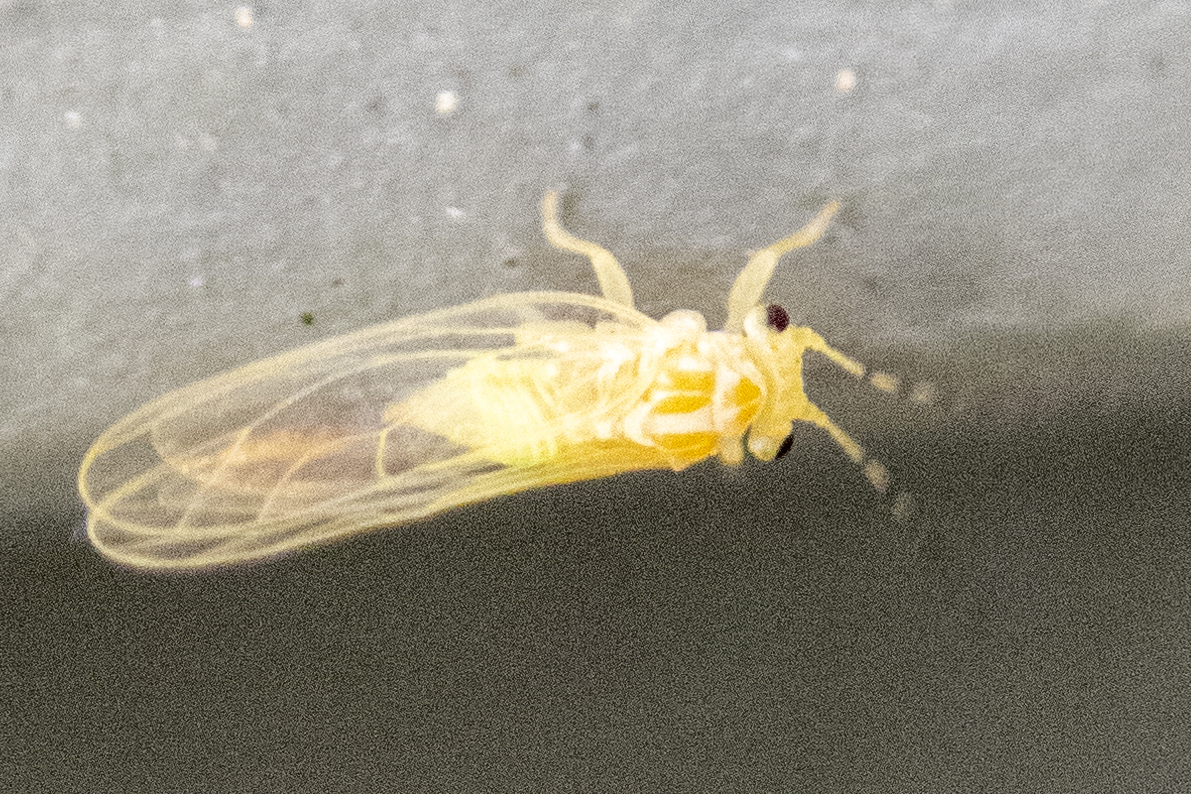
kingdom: Animalia
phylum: Arthropoda
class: Insecta
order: Hemiptera
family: Psyllidae
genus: Cacopsylla
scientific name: Cacopsylla annulata
